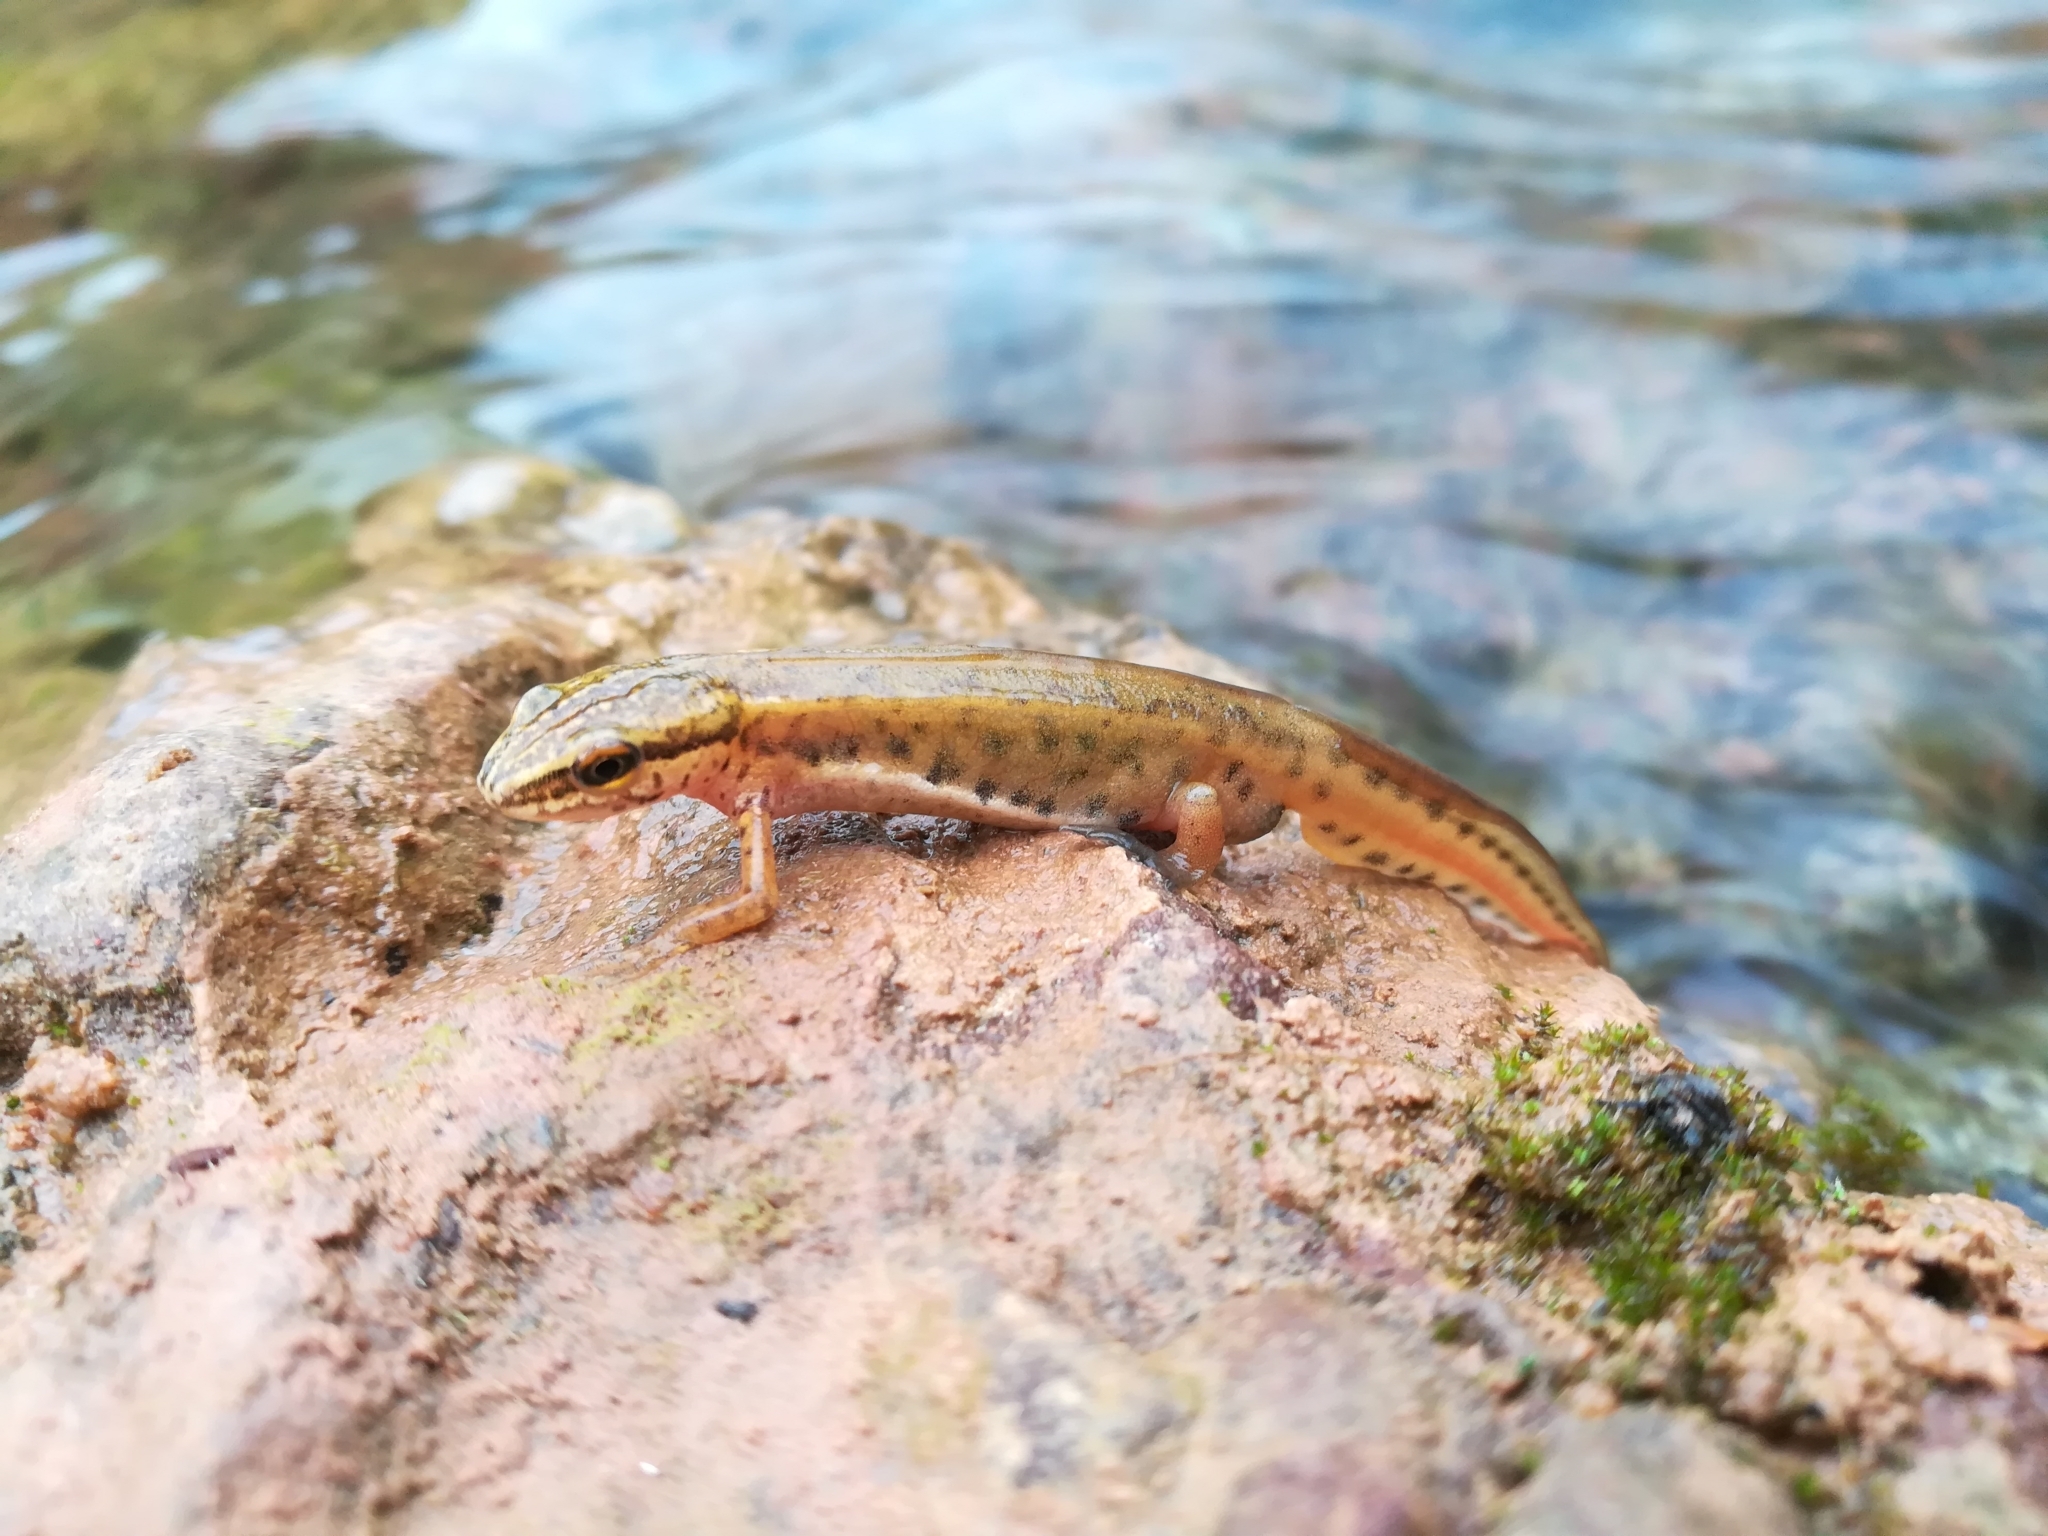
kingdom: Animalia
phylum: Chordata
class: Amphibia
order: Caudata
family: Salamandridae
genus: Lissotriton
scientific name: Lissotriton helveticus
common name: Palmate newt
